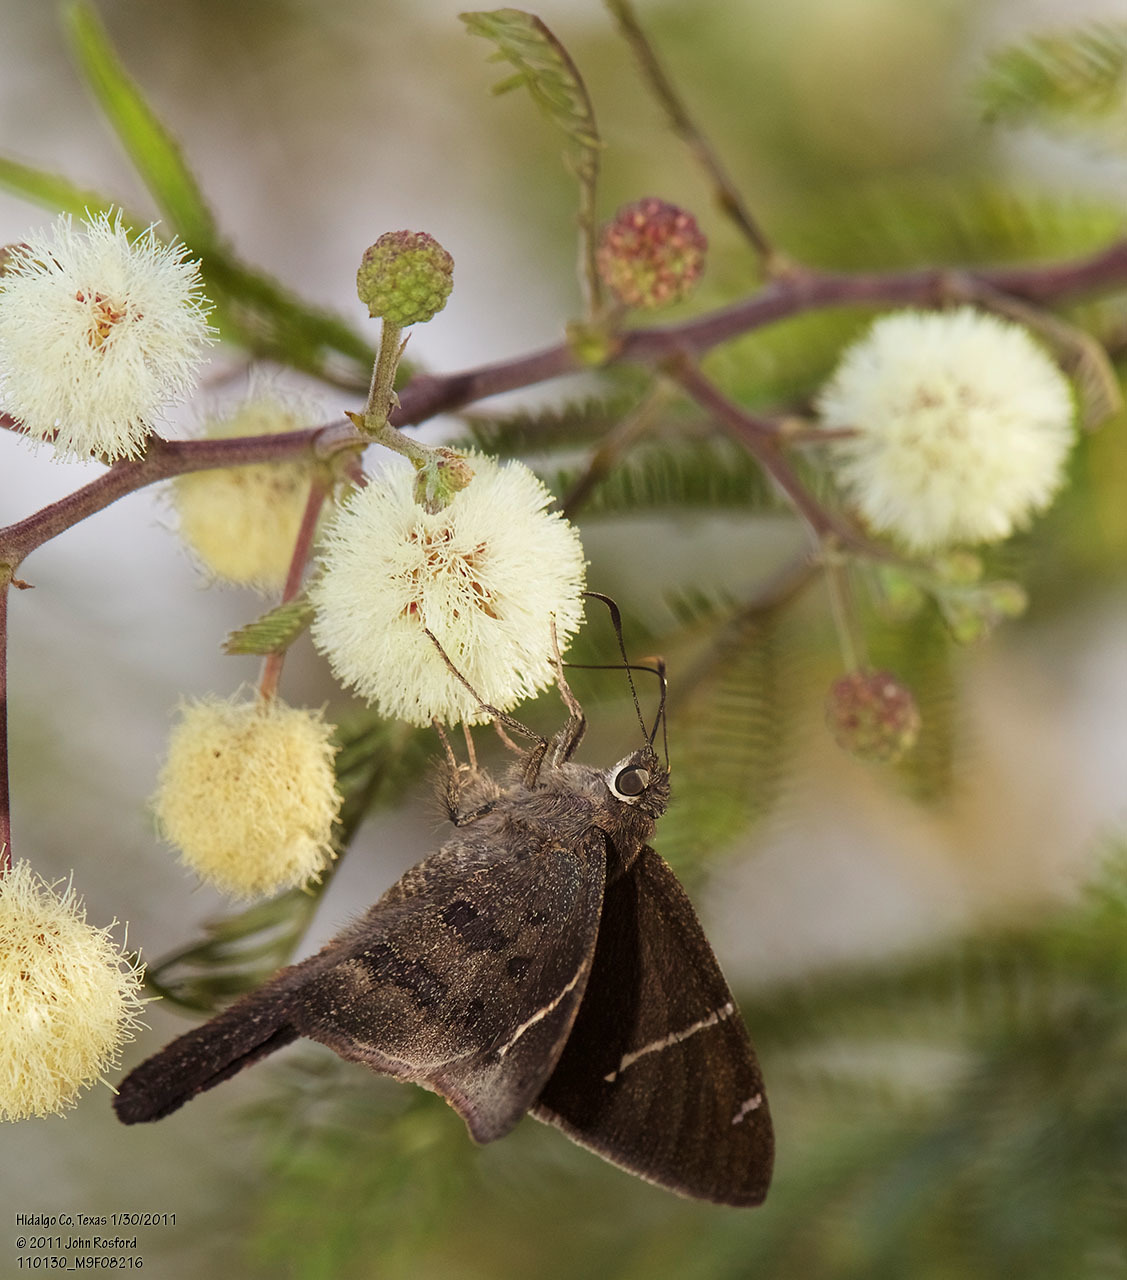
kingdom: Plantae
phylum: Tracheophyta
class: Magnoliopsida
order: Fabales
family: Fabaceae
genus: Senegalia
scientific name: Senegalia berlandieri
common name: Berlandier acacia
